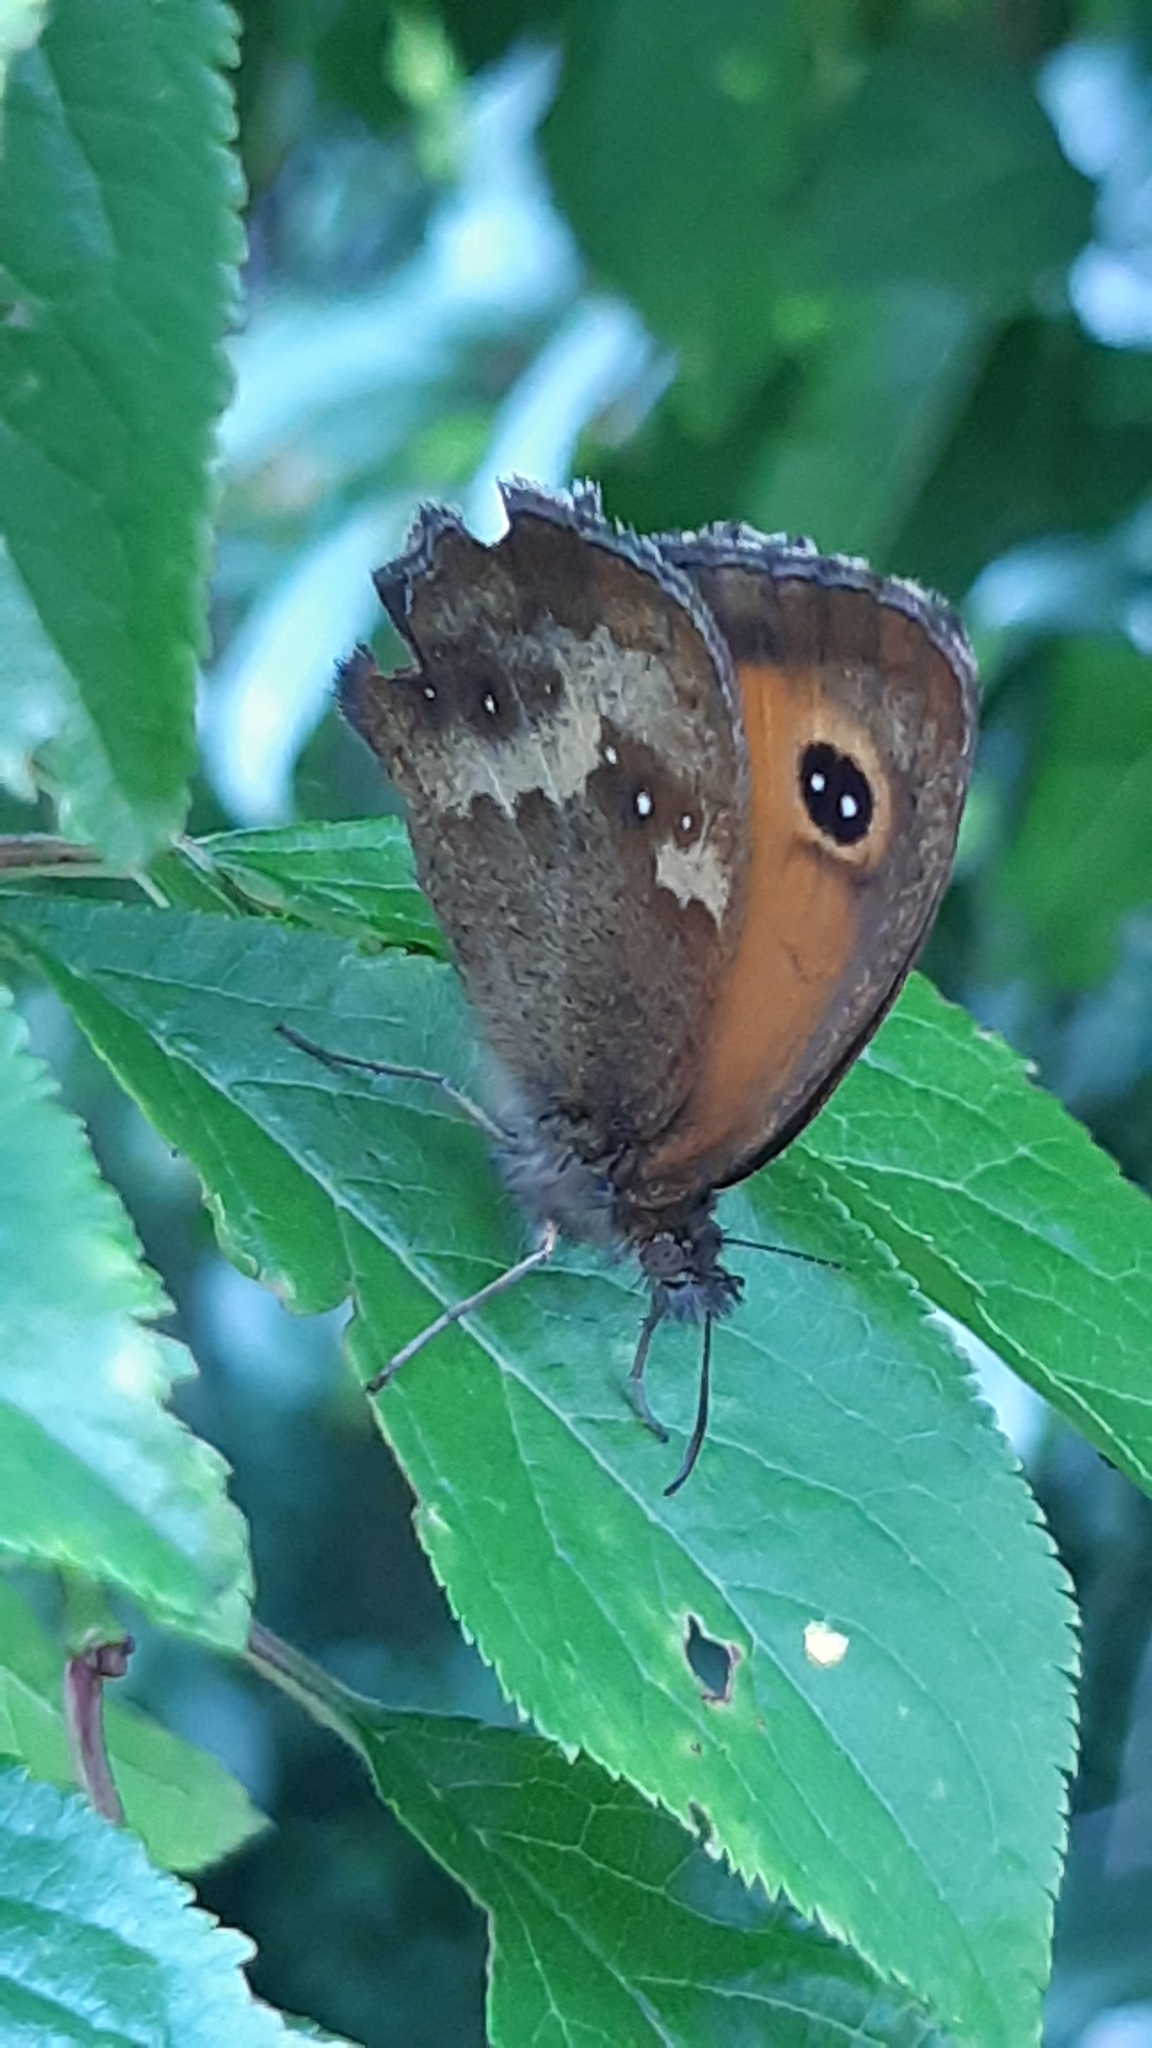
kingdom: Animalia
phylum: Arthropoda
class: Insecta
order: Lepidoptera
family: Nymphalidae
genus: Pyronia
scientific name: Pyronia tithonus
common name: Gatekeeper
